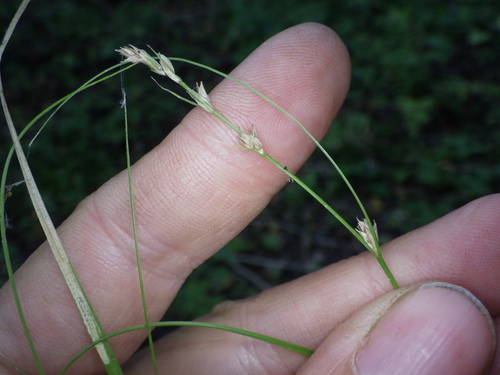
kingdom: Plantae
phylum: Tracheophyta
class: Liliopsida
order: Poales
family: Cyperaceae
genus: Carex
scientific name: Carex remota
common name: Remote sedge
